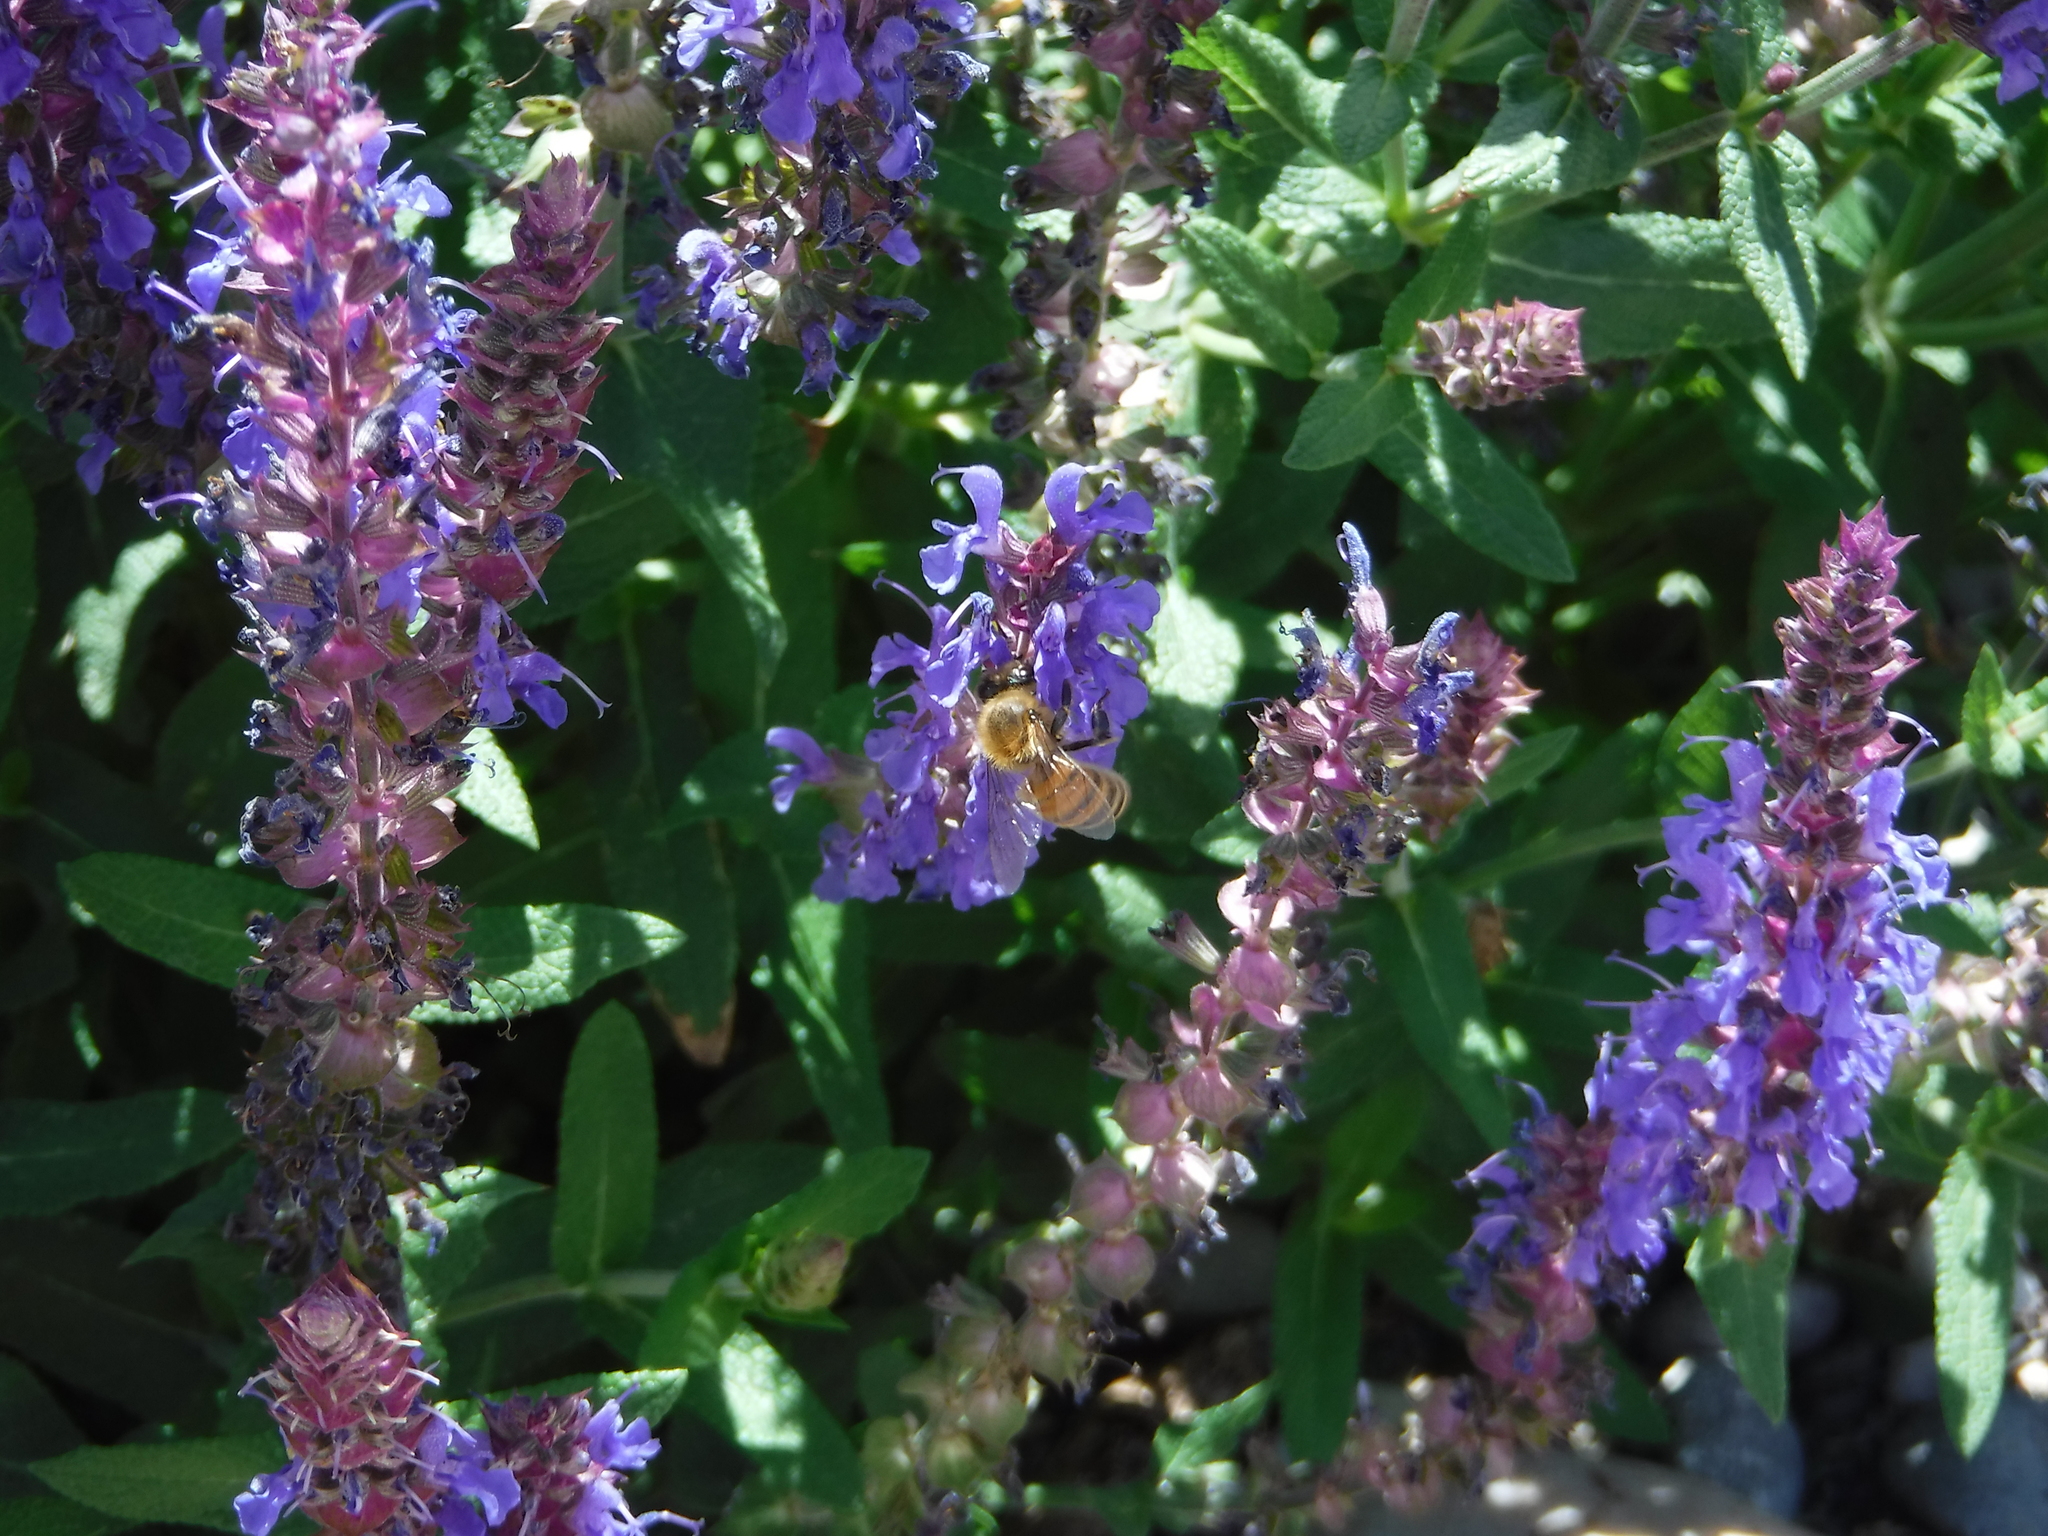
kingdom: Animalia
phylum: Arthropoda
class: Insecta
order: Hymenoptera
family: Apidae
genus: Apis
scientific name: Apis mellifera
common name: Honey bee
